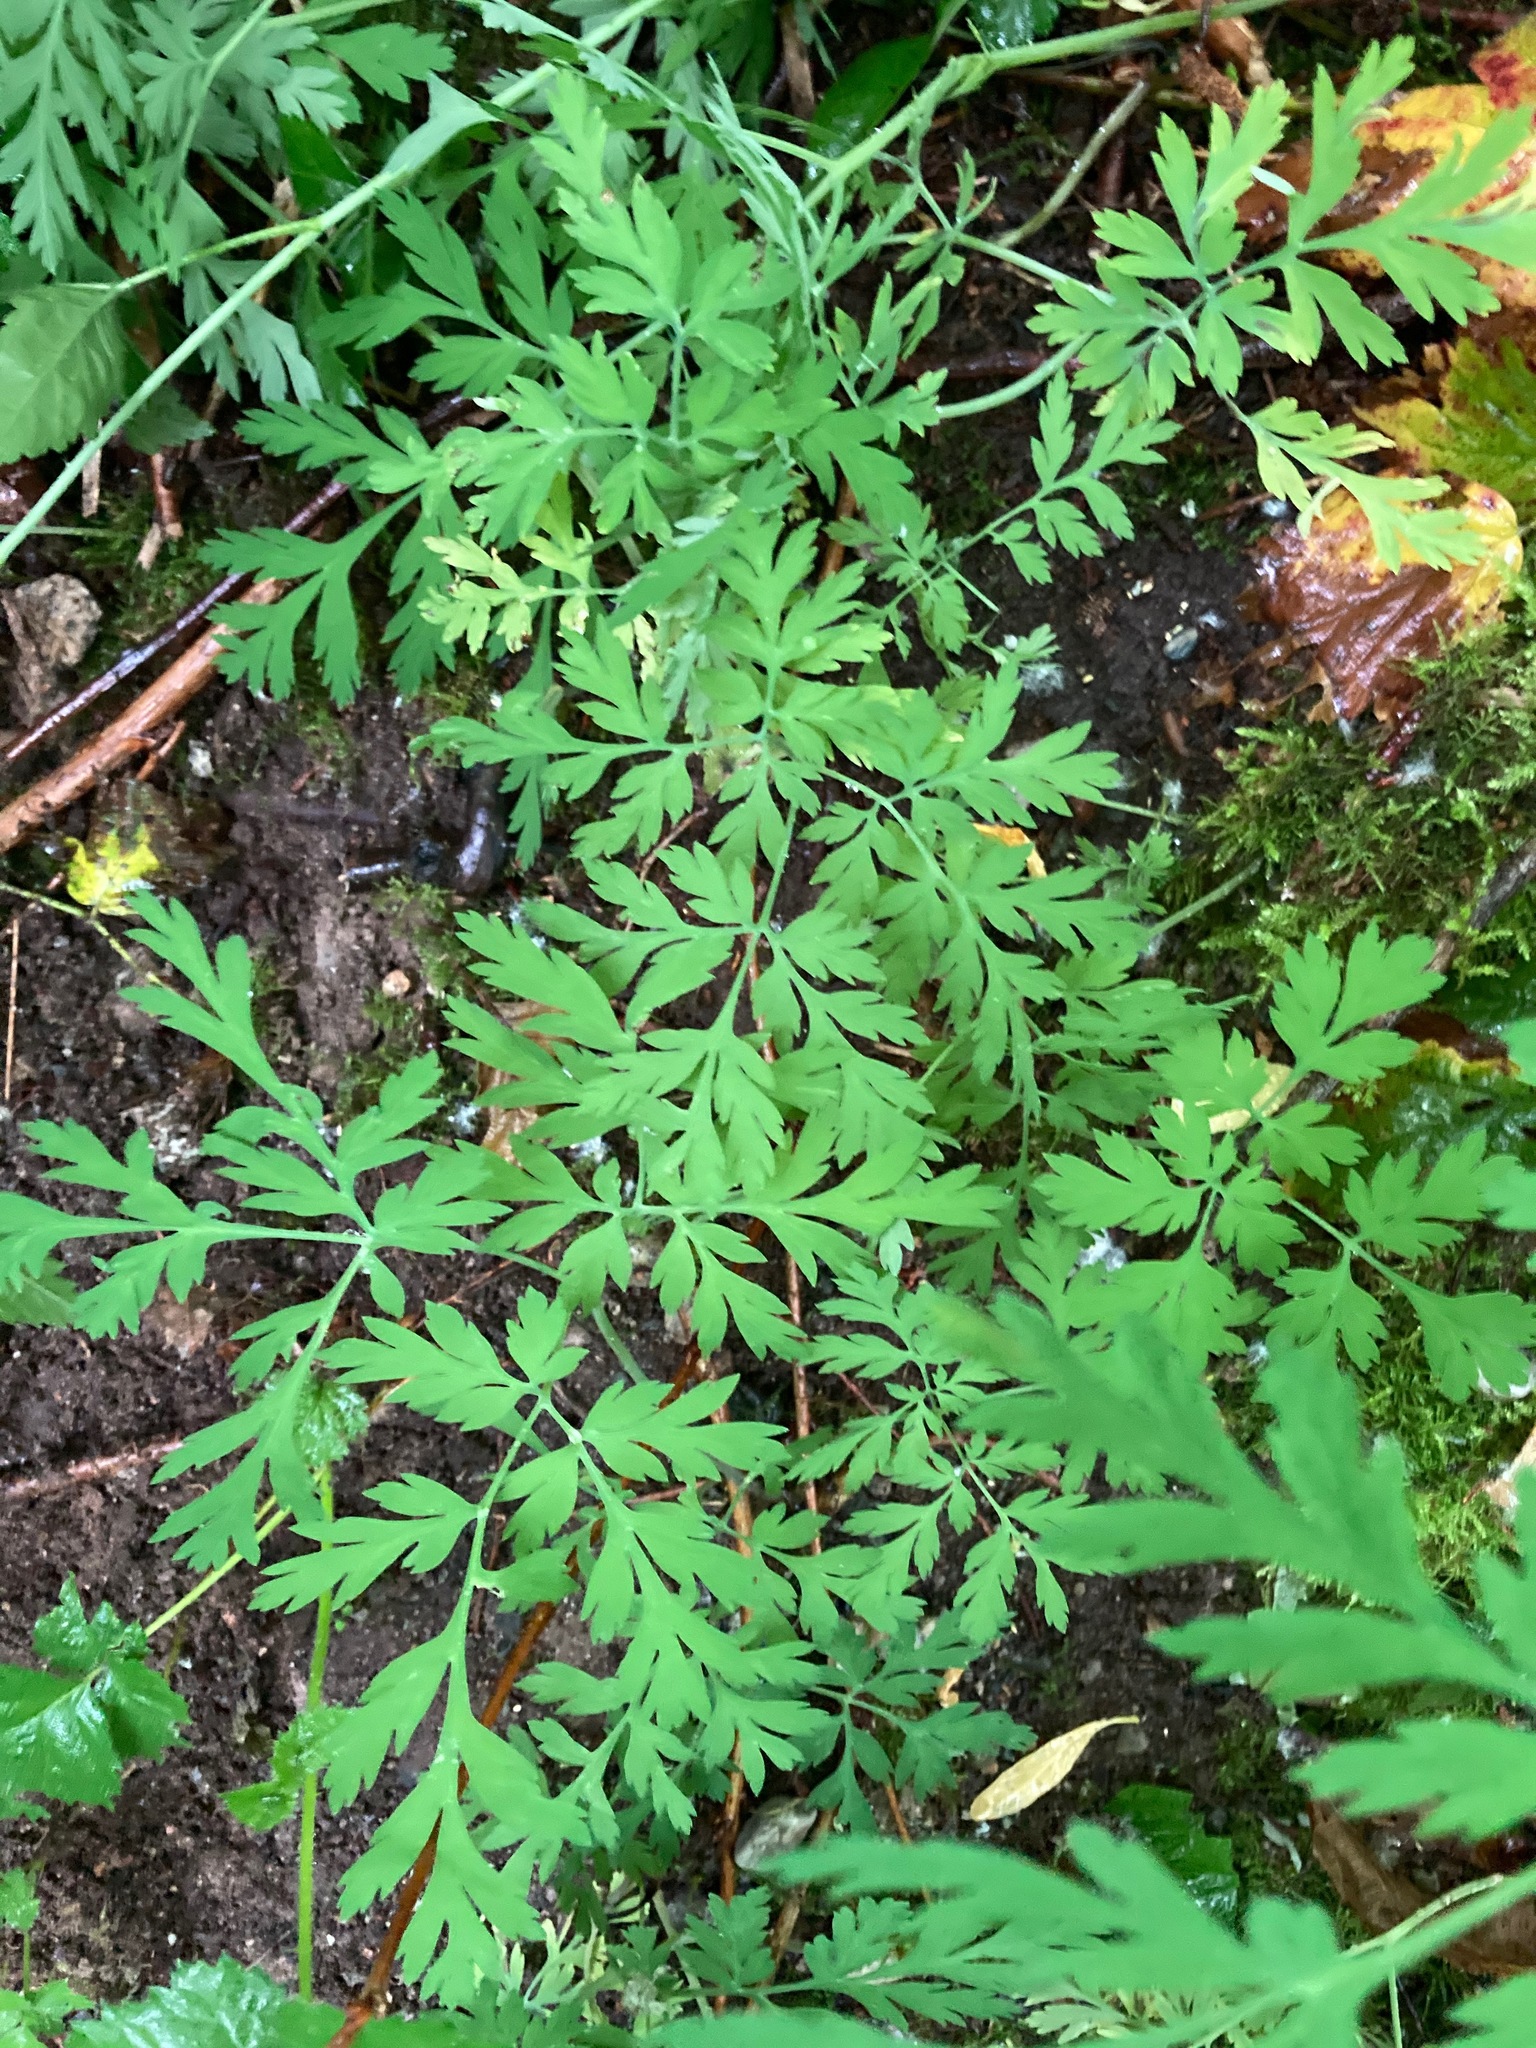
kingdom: Plantae
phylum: Tracheophyta
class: Magnoliopsida
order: Ranunculales
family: Papaveraceae
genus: Dicentra
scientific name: Dicentra formosa
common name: Bleeding-heart
